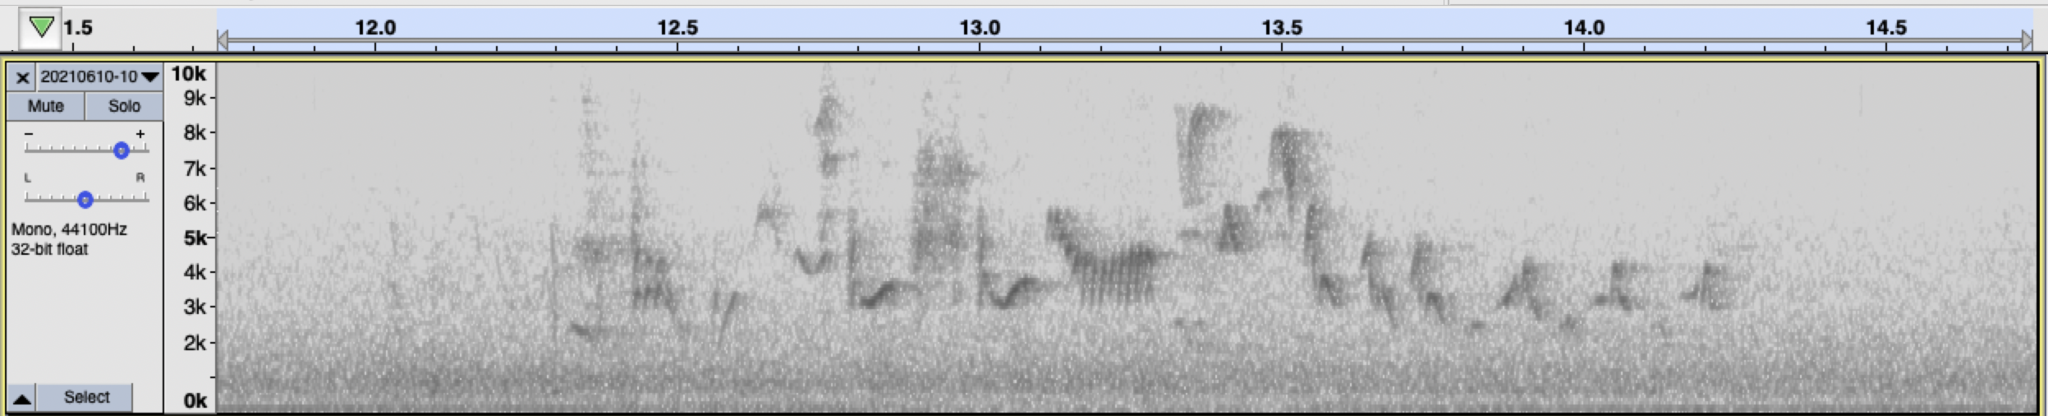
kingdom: Animalia
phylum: Chordata
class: Aves
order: Passeriformes
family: Troglodytidae
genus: Troglodytes
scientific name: Troglodytes aedon
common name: House wren
